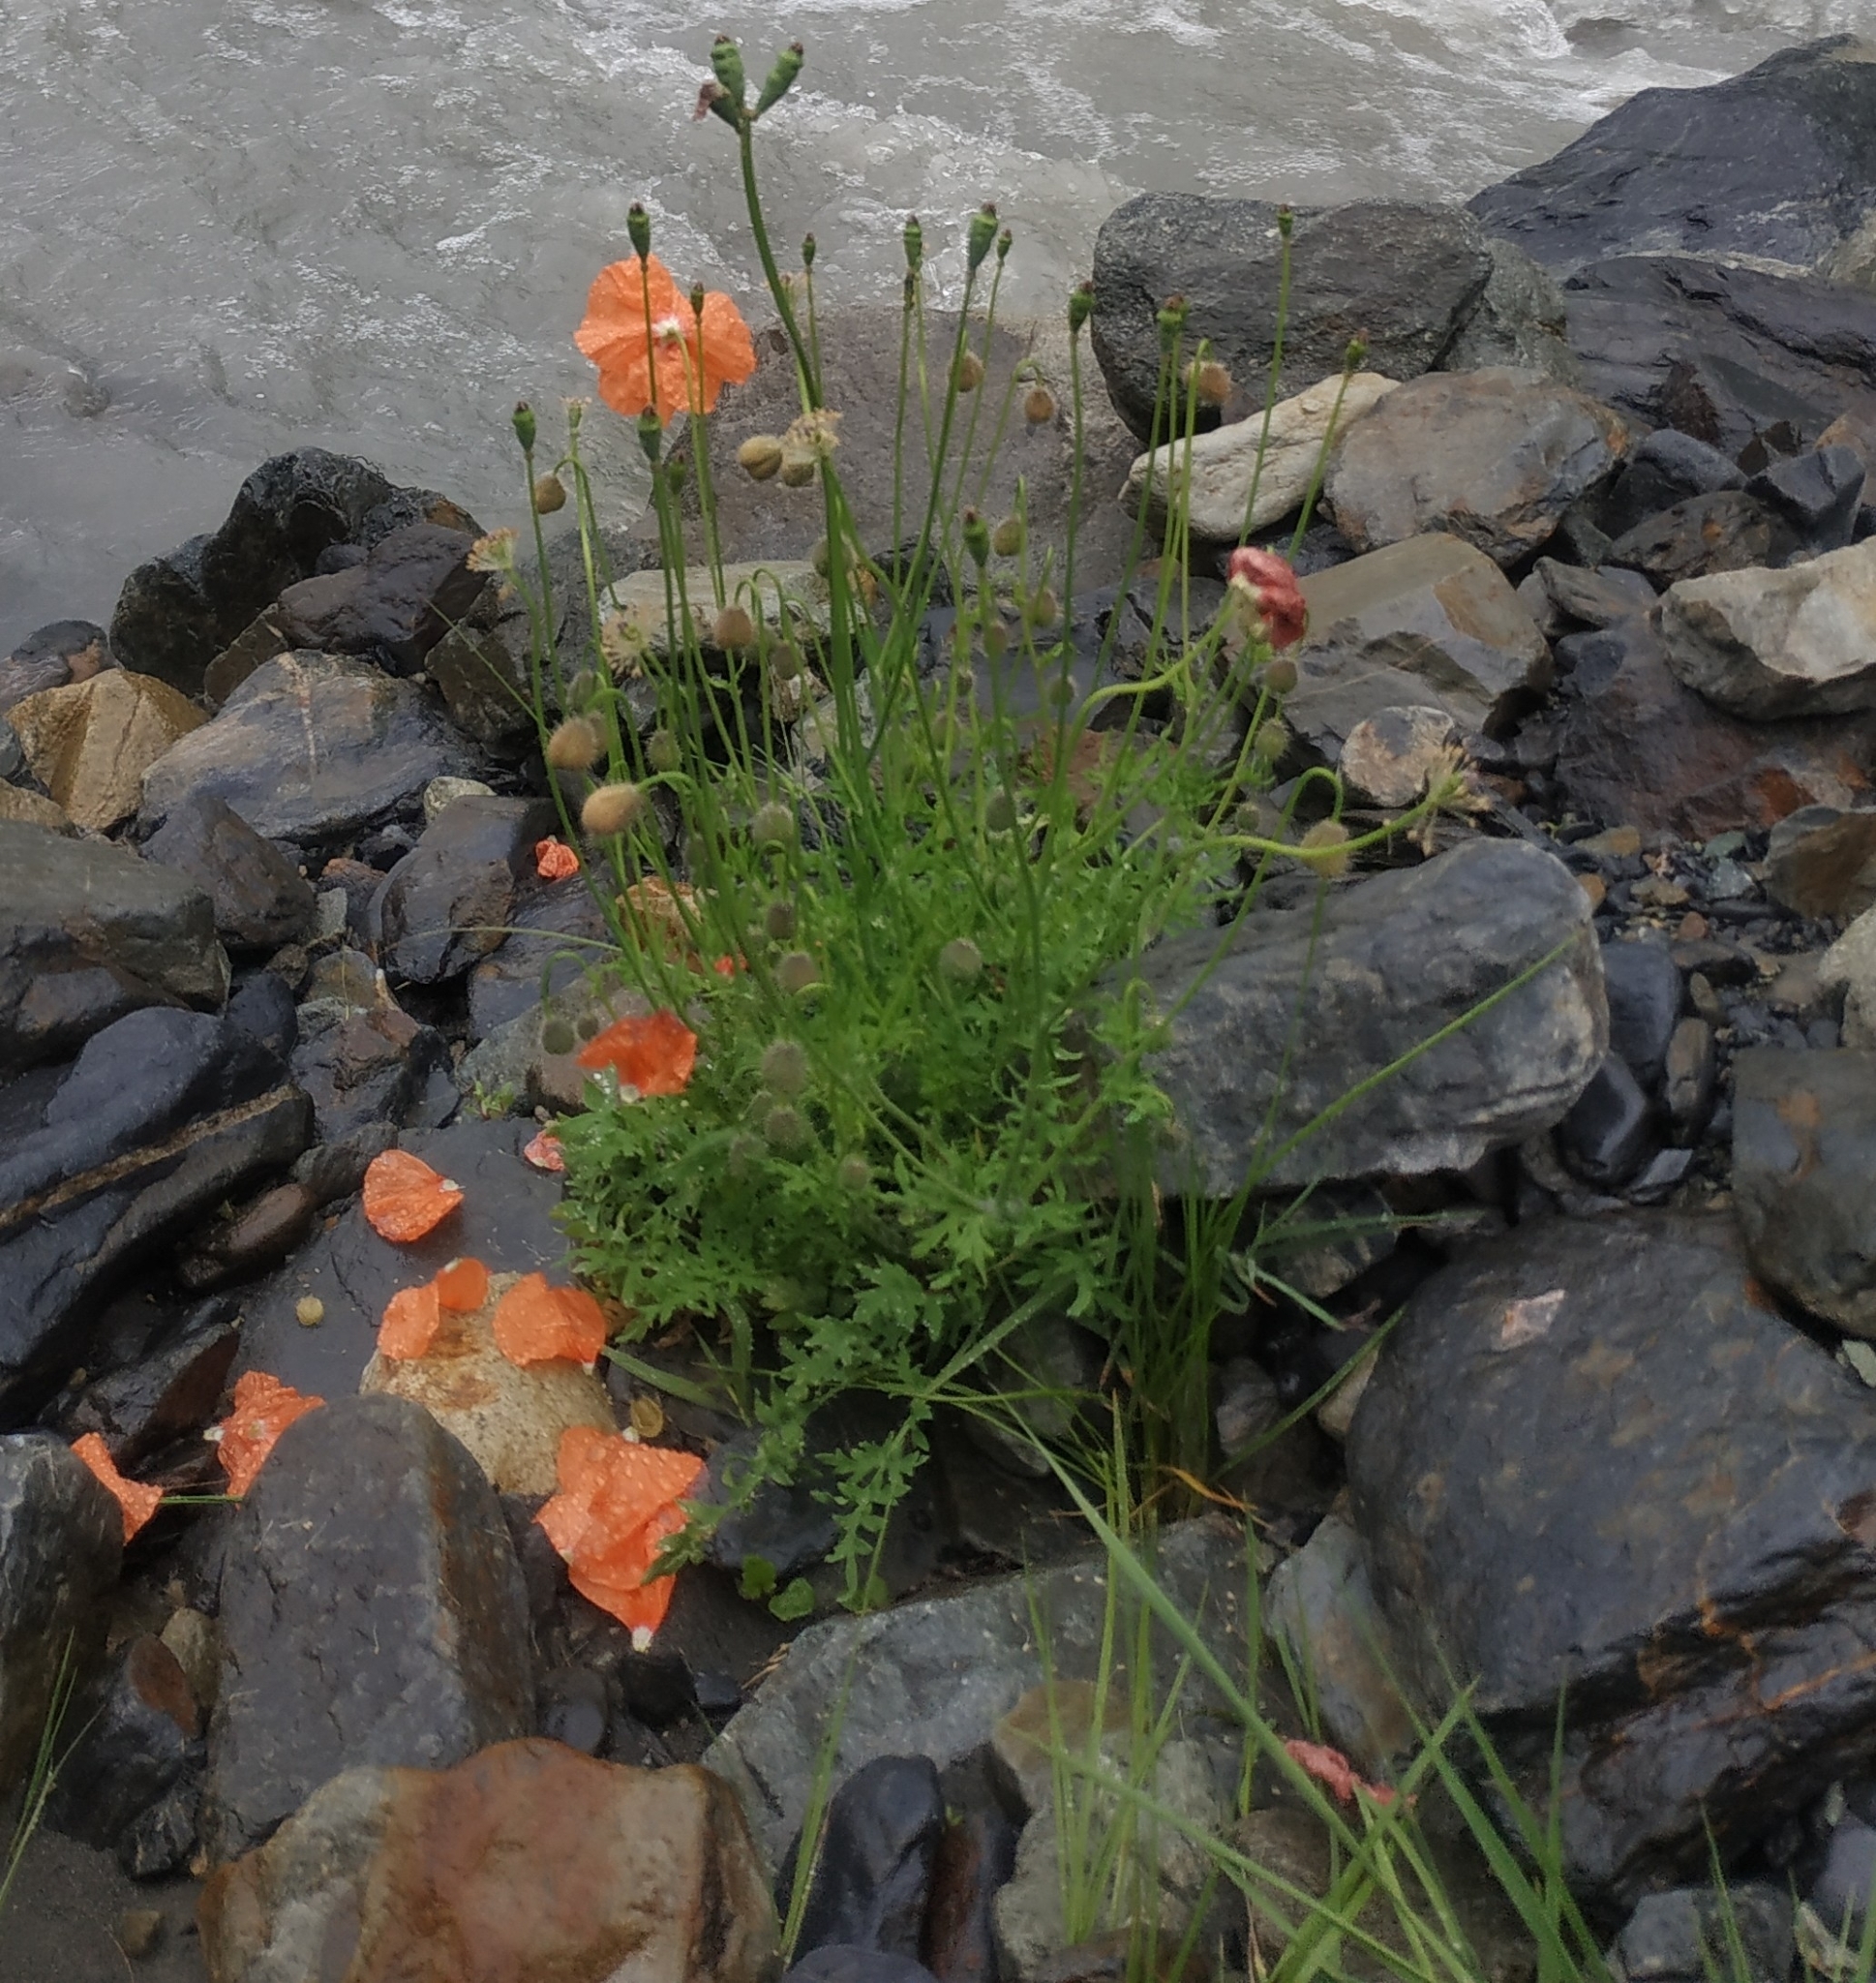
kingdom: Plantae
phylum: Tracheophyta
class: Magnoliopsida
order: Ranunculales
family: Papaveraceae
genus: Papaver
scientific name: Papaver armeniacum
